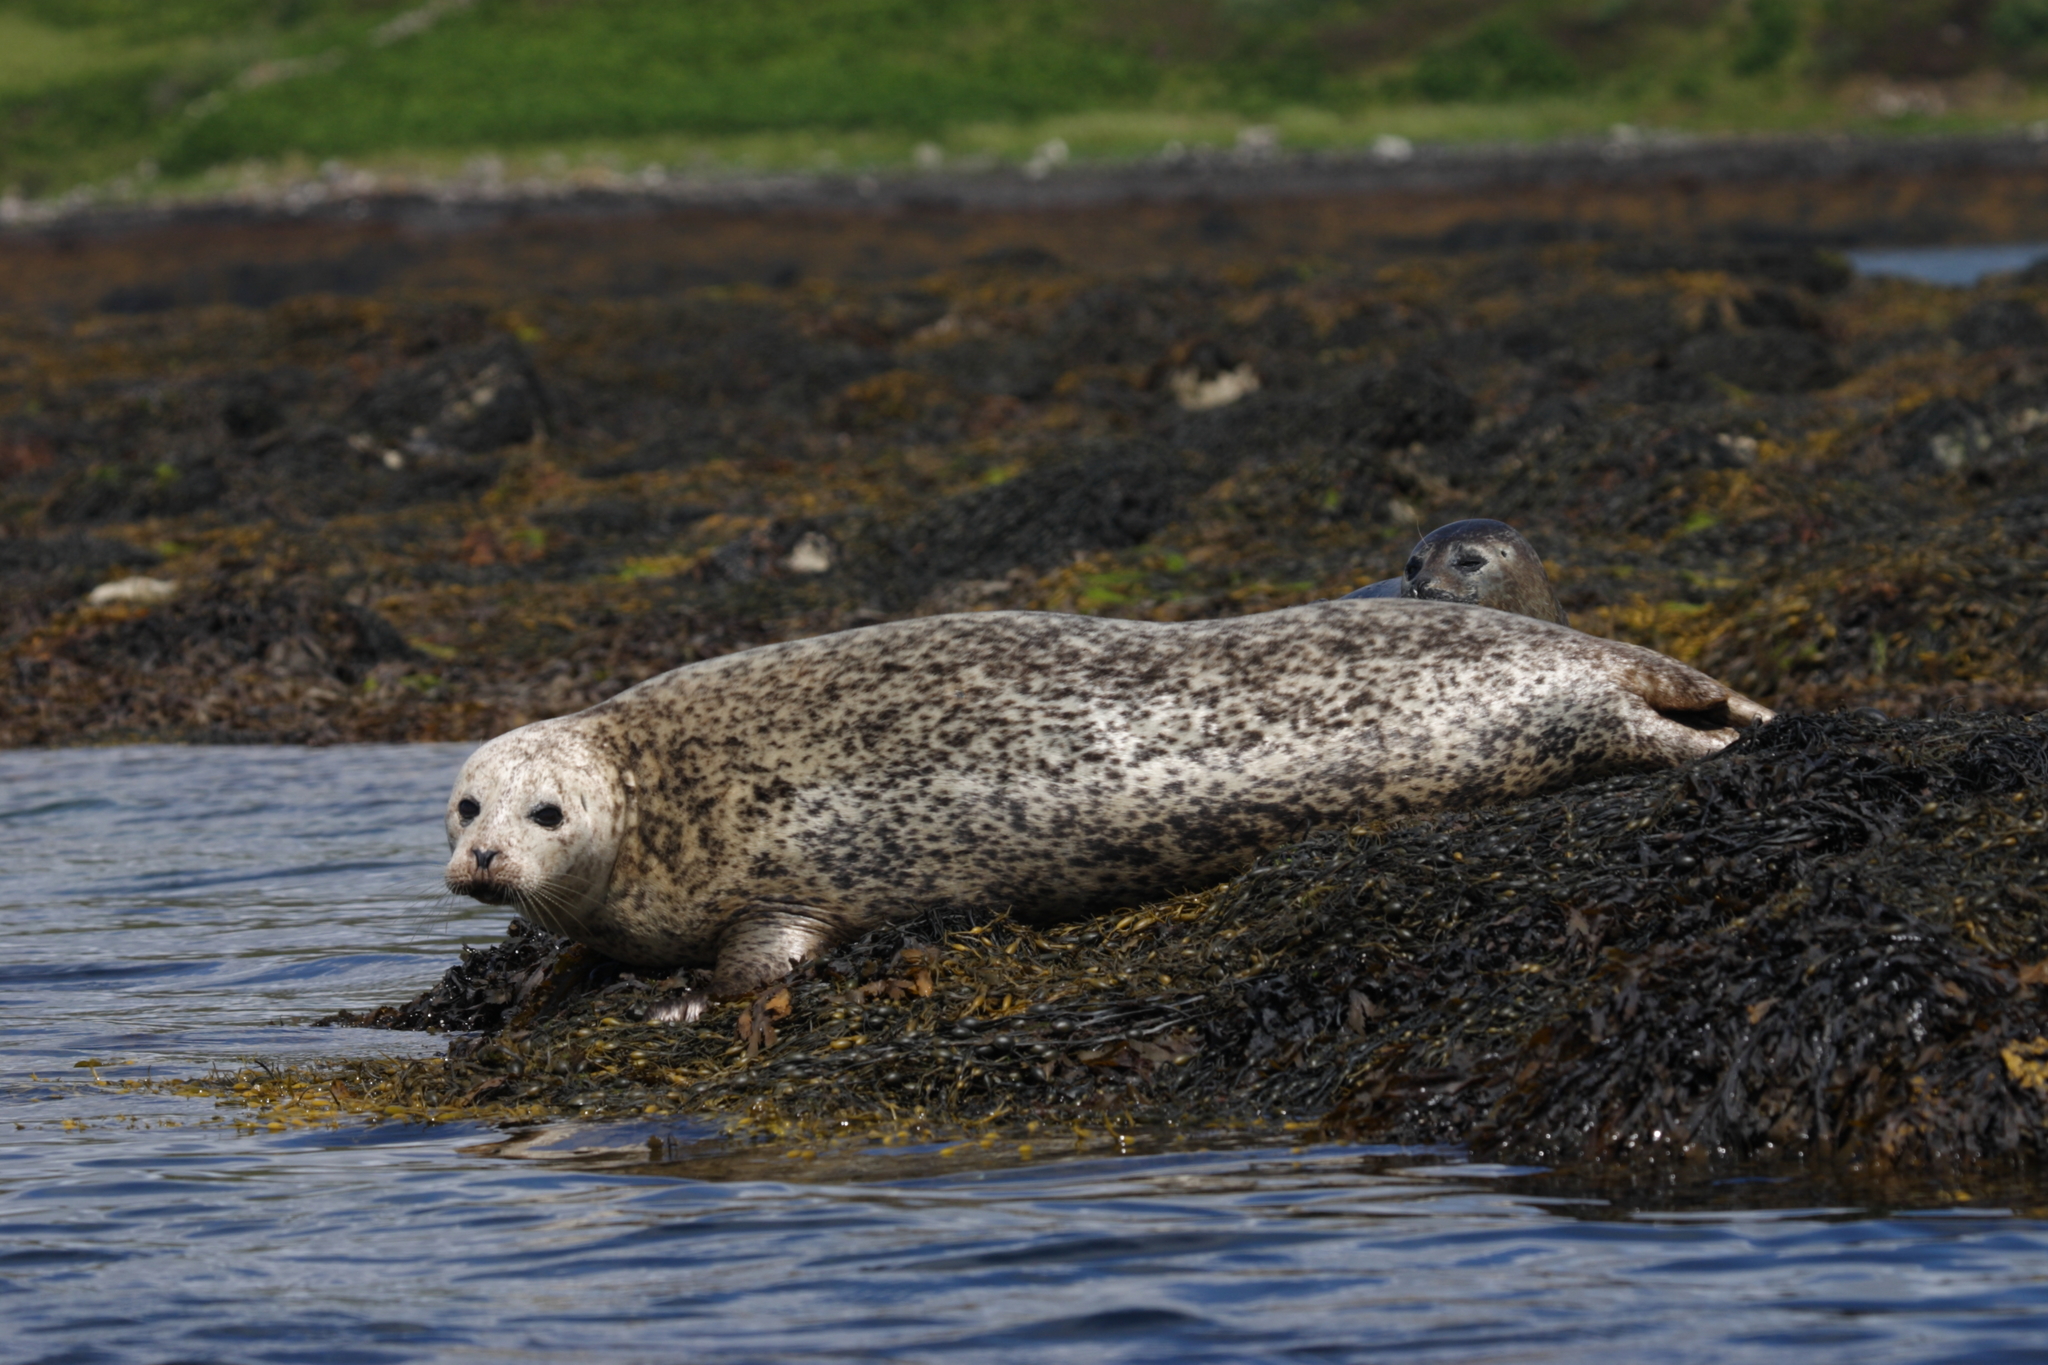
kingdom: Animalia
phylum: Chordata
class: Mammalia
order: Carnivora
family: Phocidae
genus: Phoca
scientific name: Phoca vitulina
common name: Harbor seal
